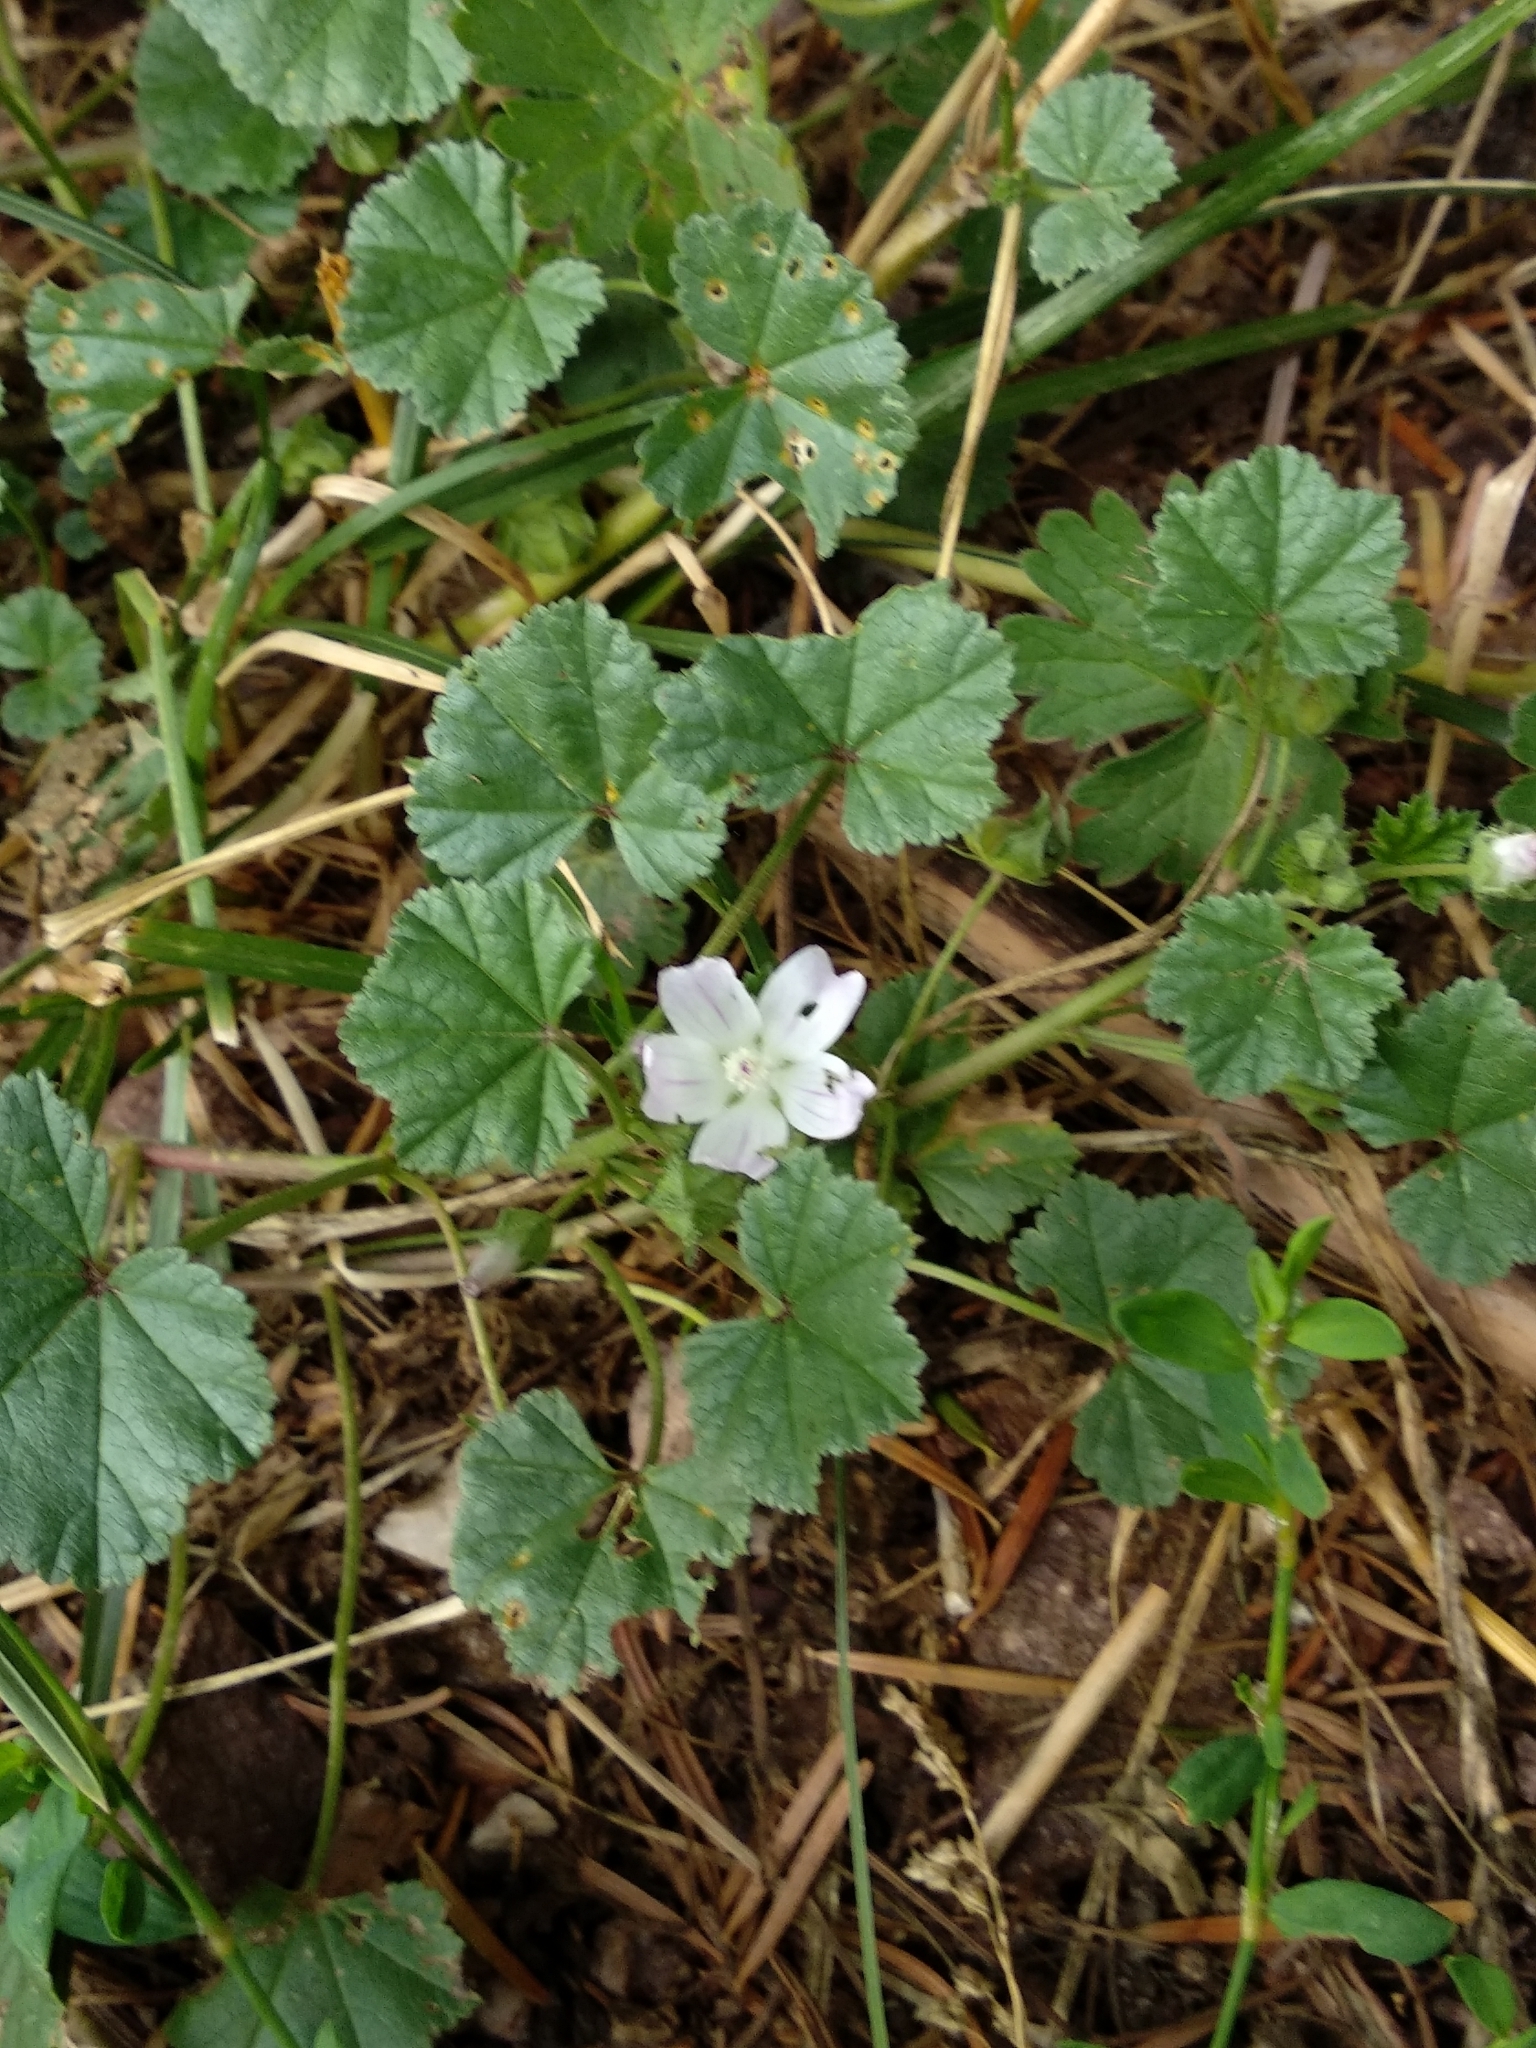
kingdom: Plantae
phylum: Tracheophyta
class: Magnoliopsida
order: Malvales
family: Malvaceae
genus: Malva
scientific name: Malva neglecta
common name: Common mallow
